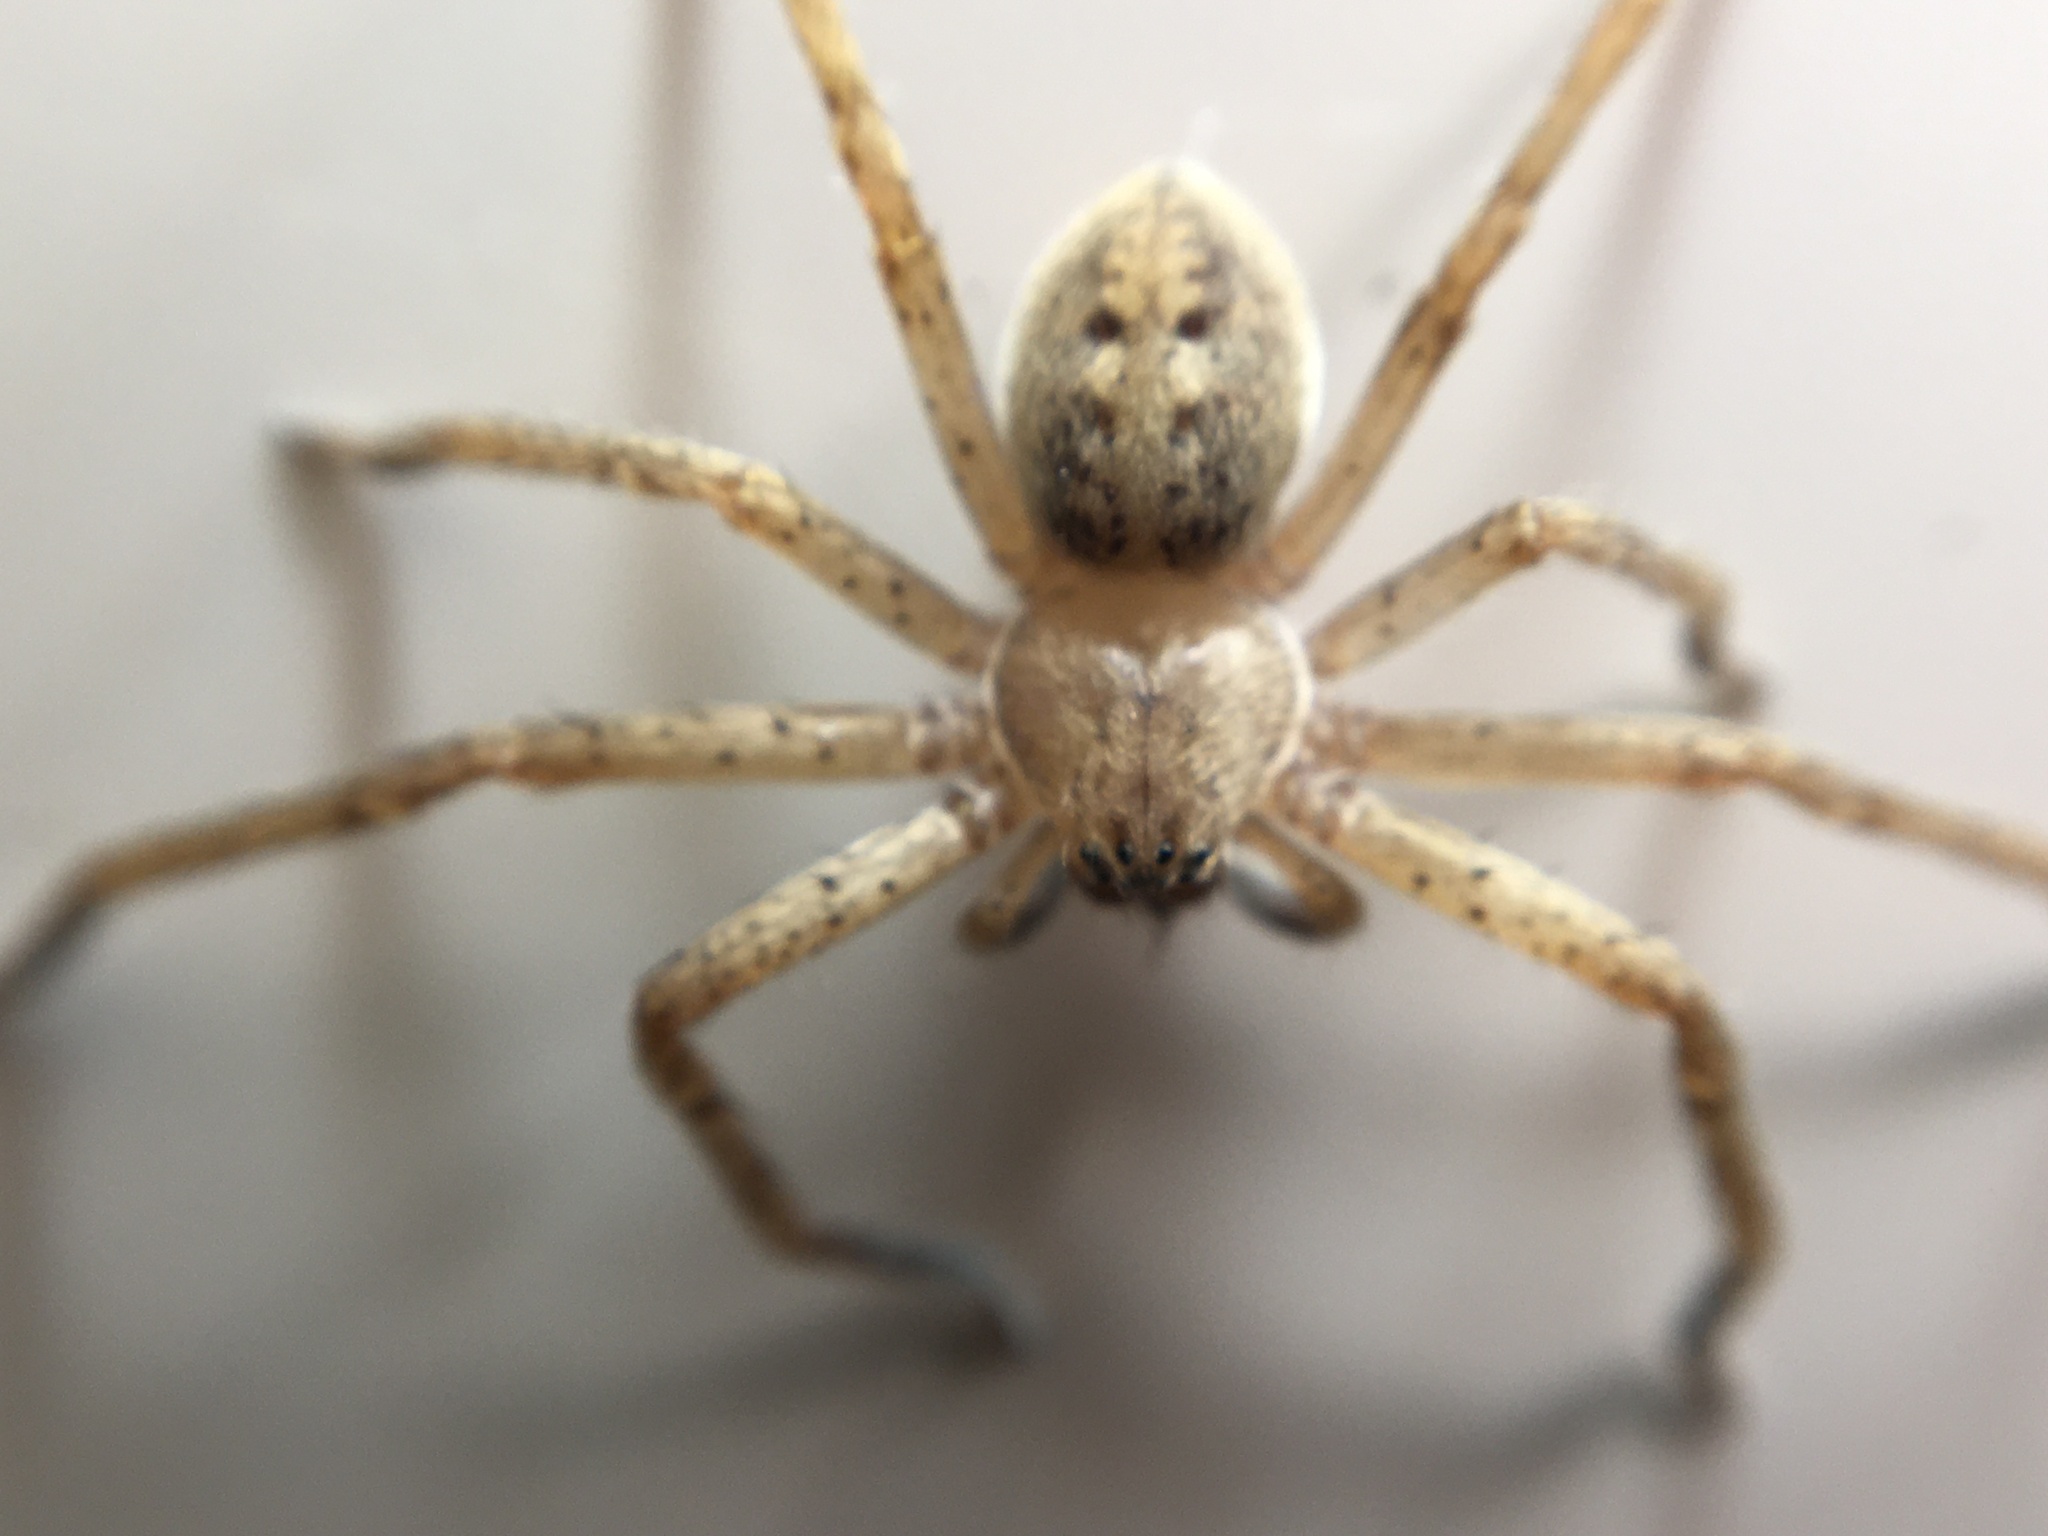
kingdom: Animalia
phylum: Arthropoda
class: Arachnida
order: Araneae
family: Sparassidae
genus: Olios
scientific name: Olios argelasius
